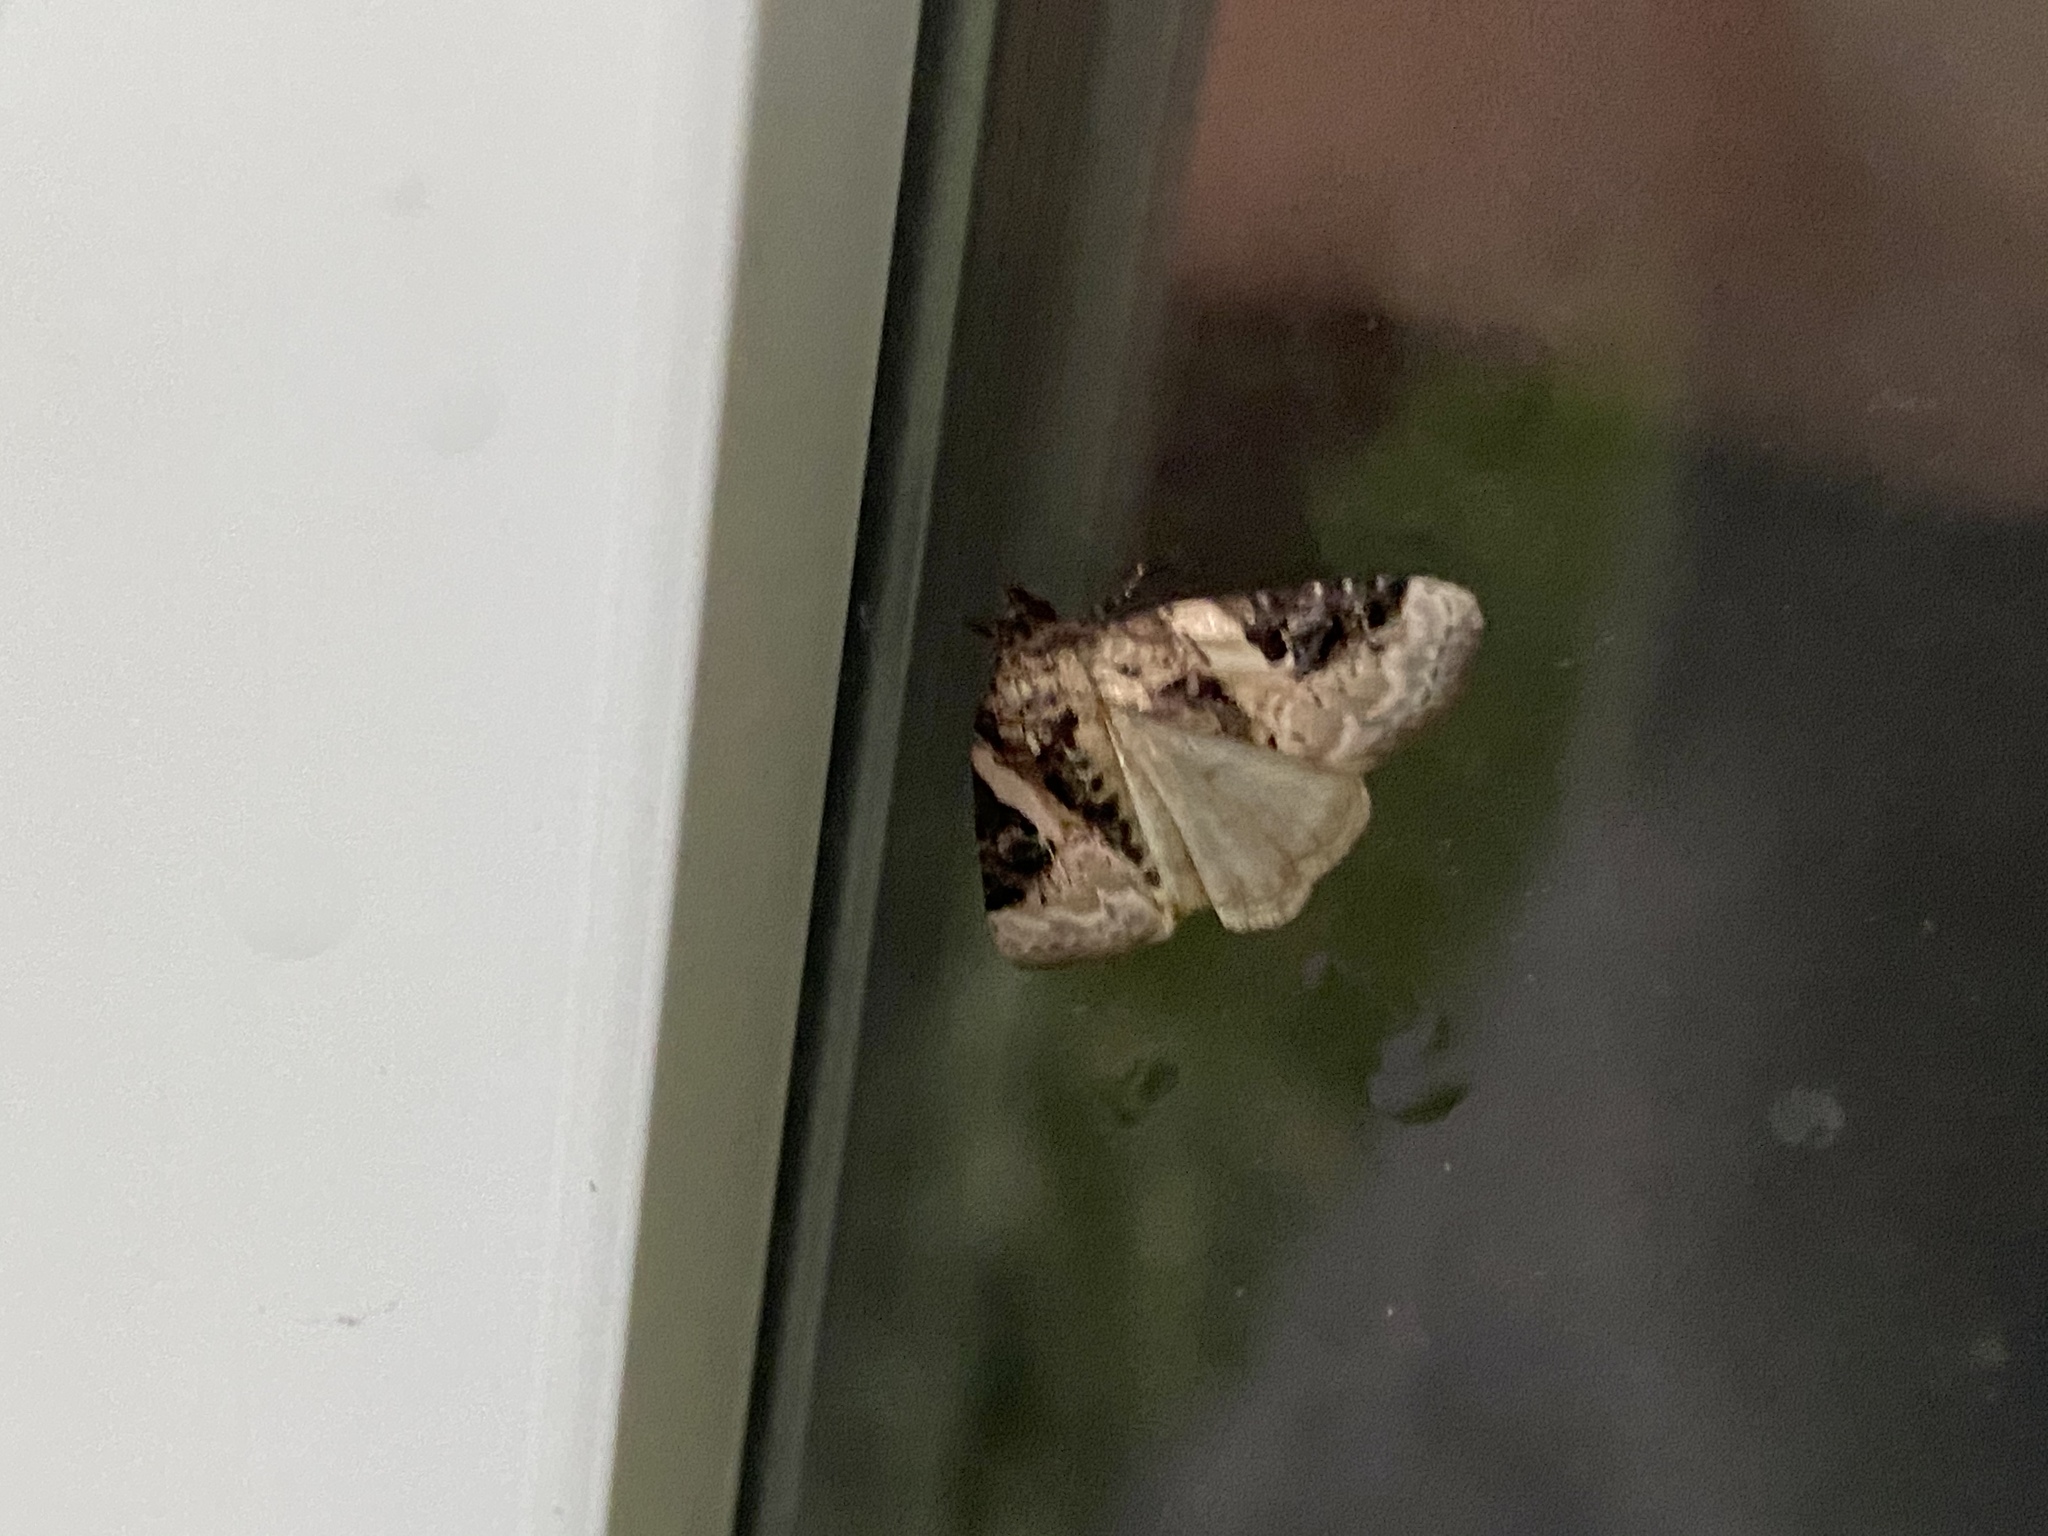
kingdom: Animalia
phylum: Arthropoda
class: Insecta
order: Lepidoptera
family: Noctuidae
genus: Pseudeustrotia
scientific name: Pseudeustrotia carneola
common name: Pink-barred lithacodia moth
